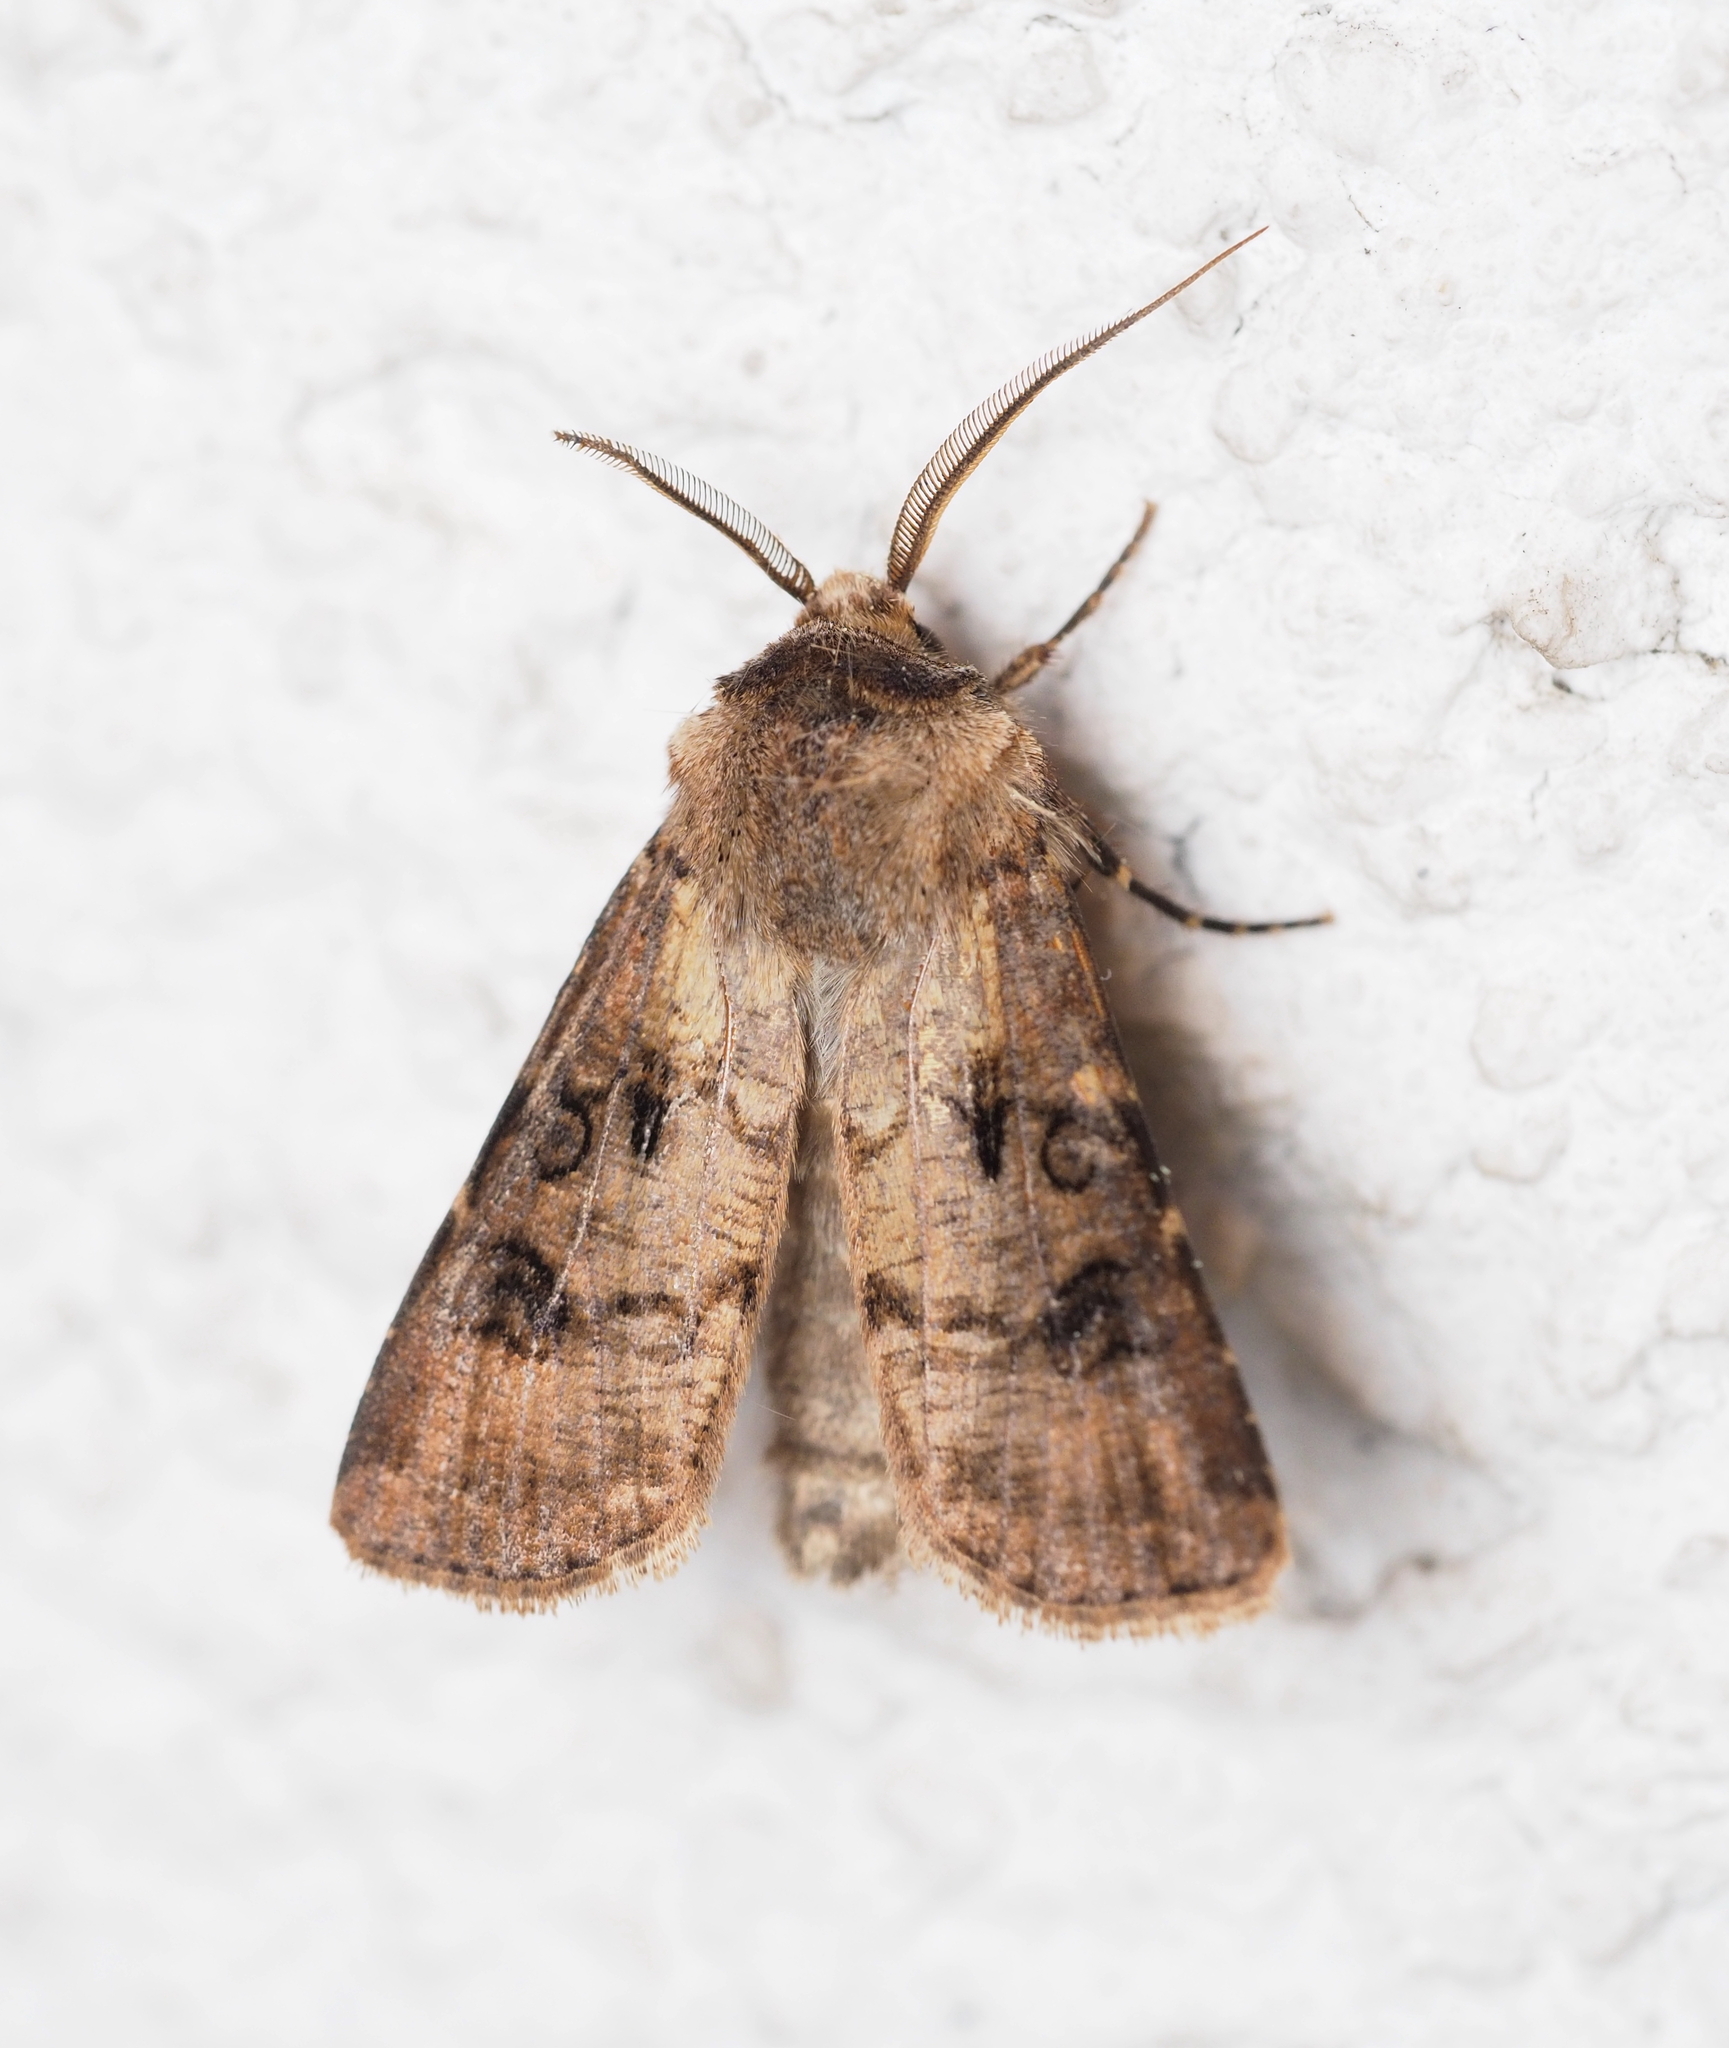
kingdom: Animalia
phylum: Arthropoda
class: Insecta
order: Lepidoptera
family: Noctuidae
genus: Agrotis
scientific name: Agrotis clavis
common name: Heart and club
